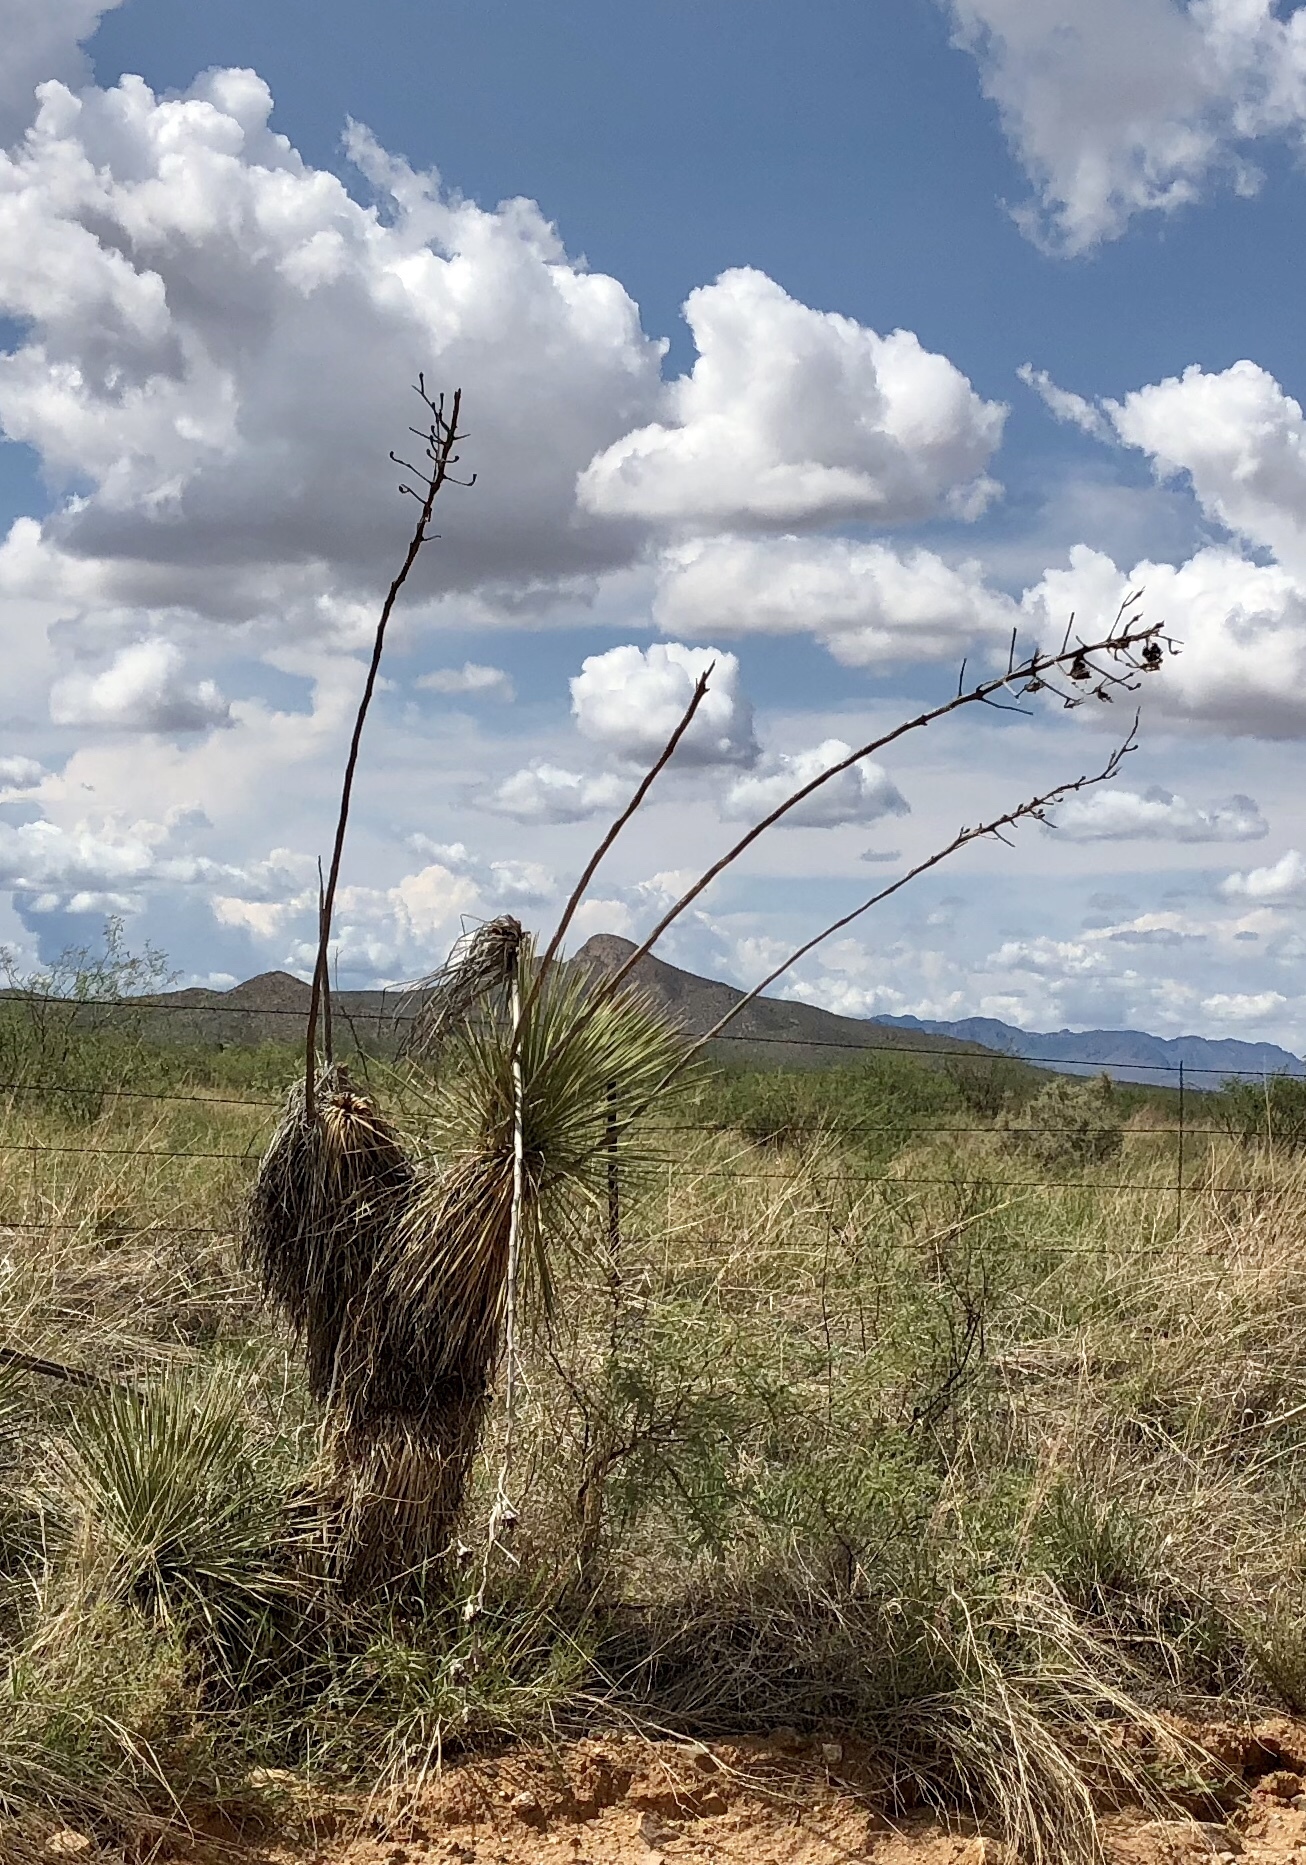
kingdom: Plantae
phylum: Tracheophyta
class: Liliopsida
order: Asparagales
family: Asparagaceae
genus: Yucca
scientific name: Yucca elata
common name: Palmella
